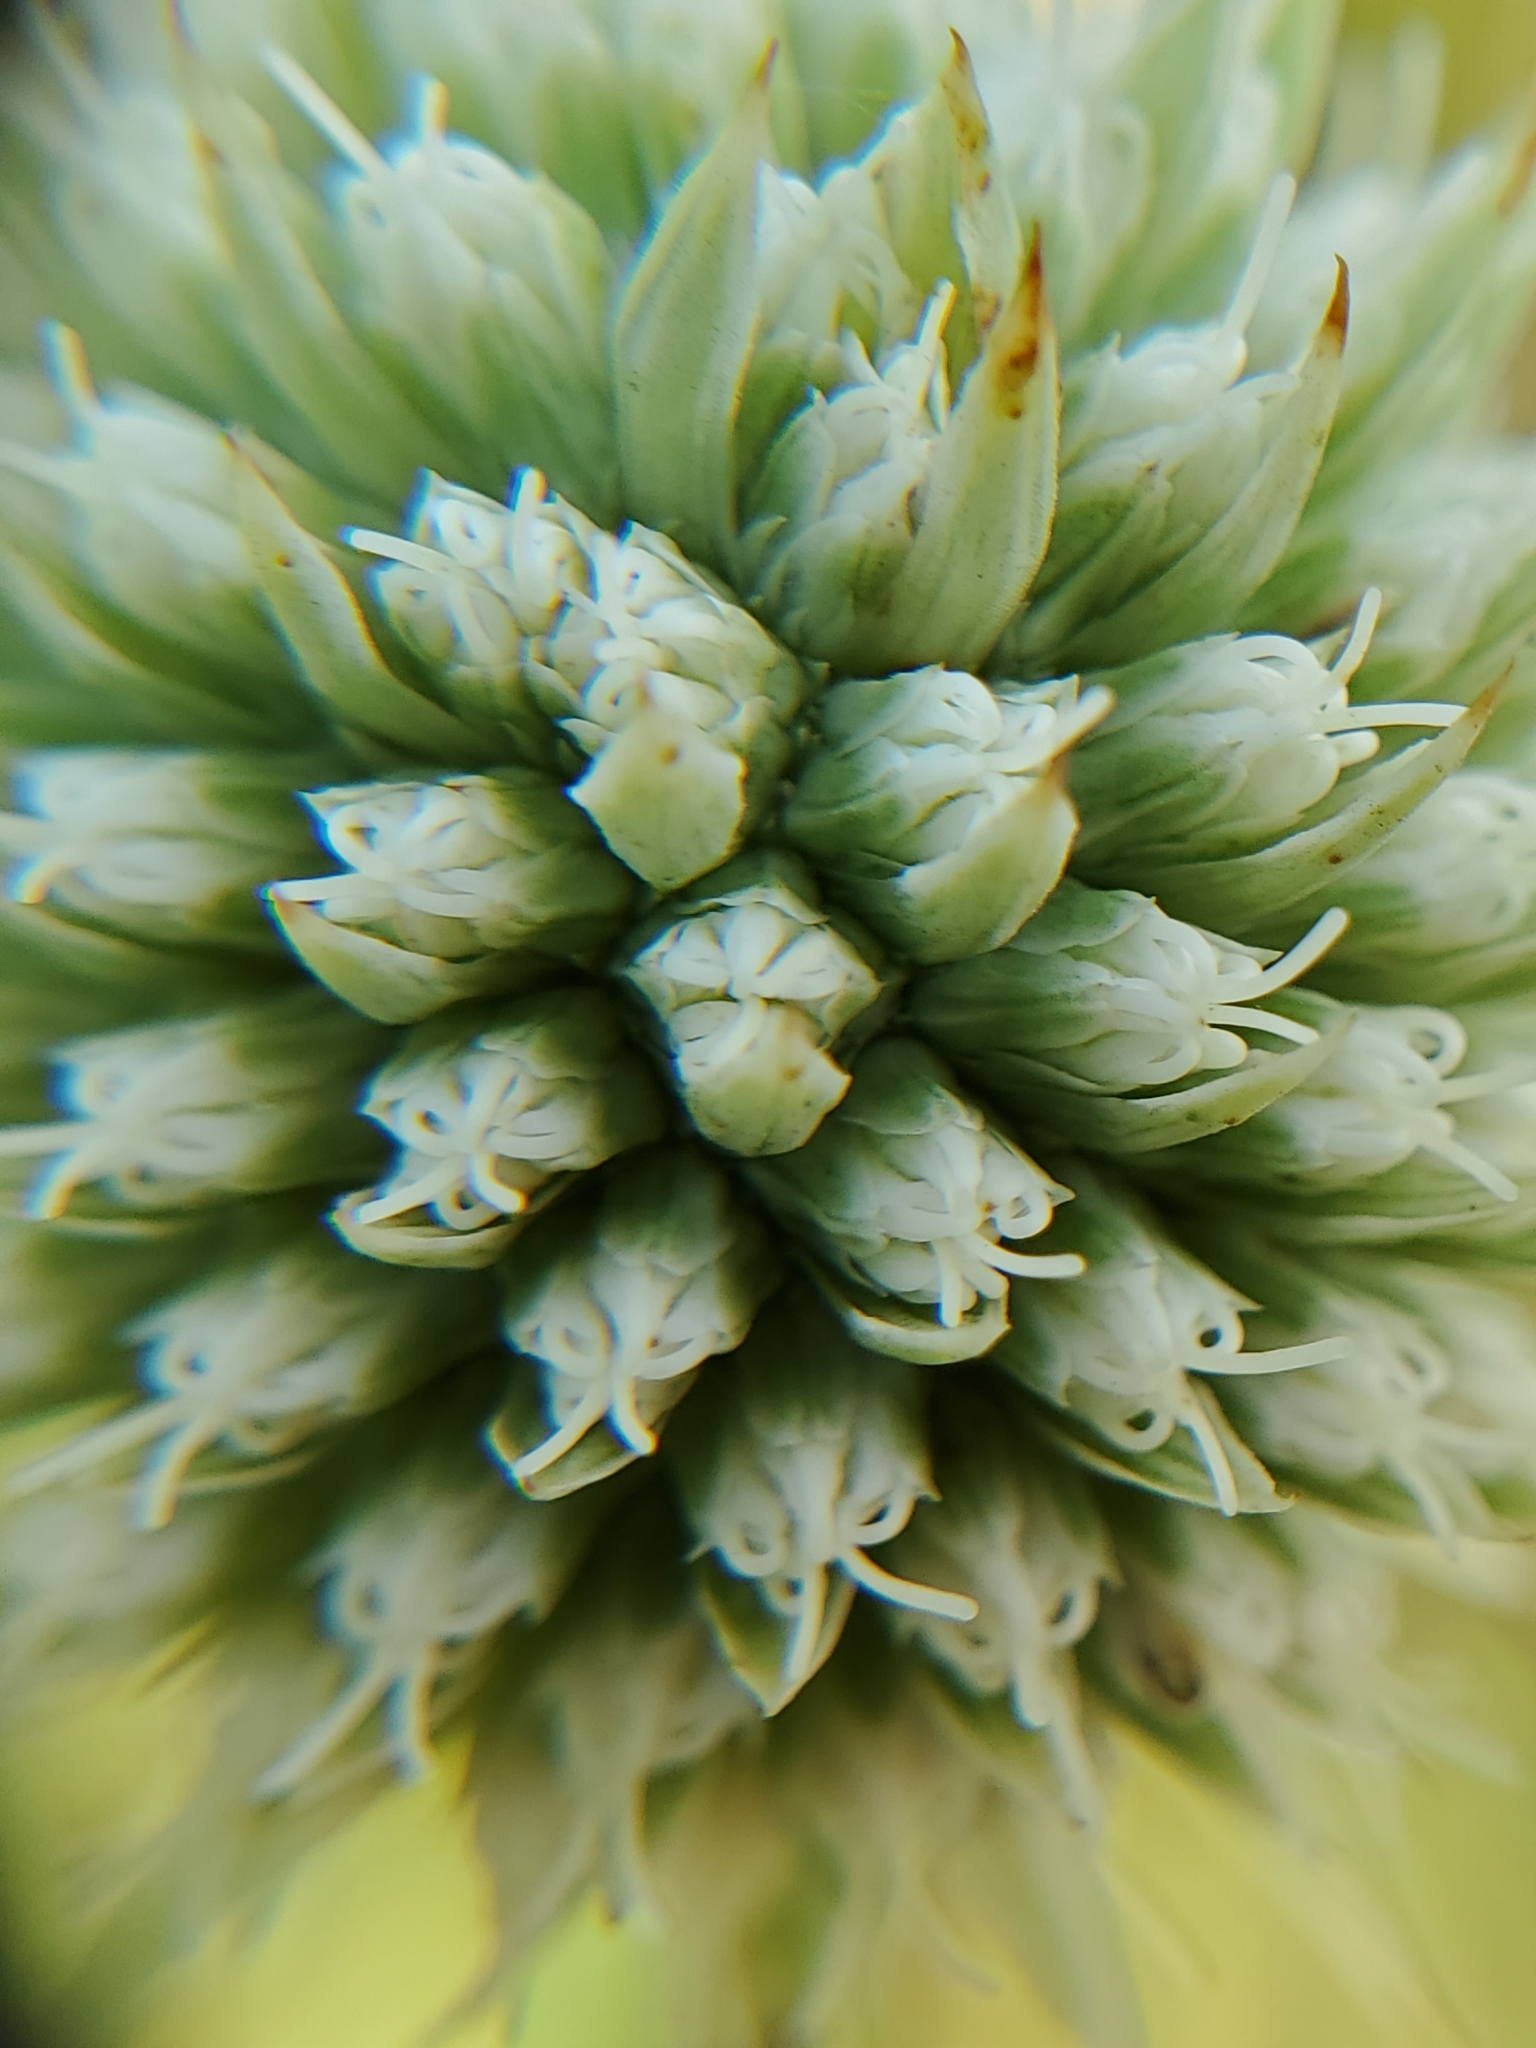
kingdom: Plantae
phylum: Tracheophyta
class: Magnoliopsida
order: Apiales
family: Apiaceae
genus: Eryngium
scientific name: Eryngium yuccifolium
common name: Button eryngo
